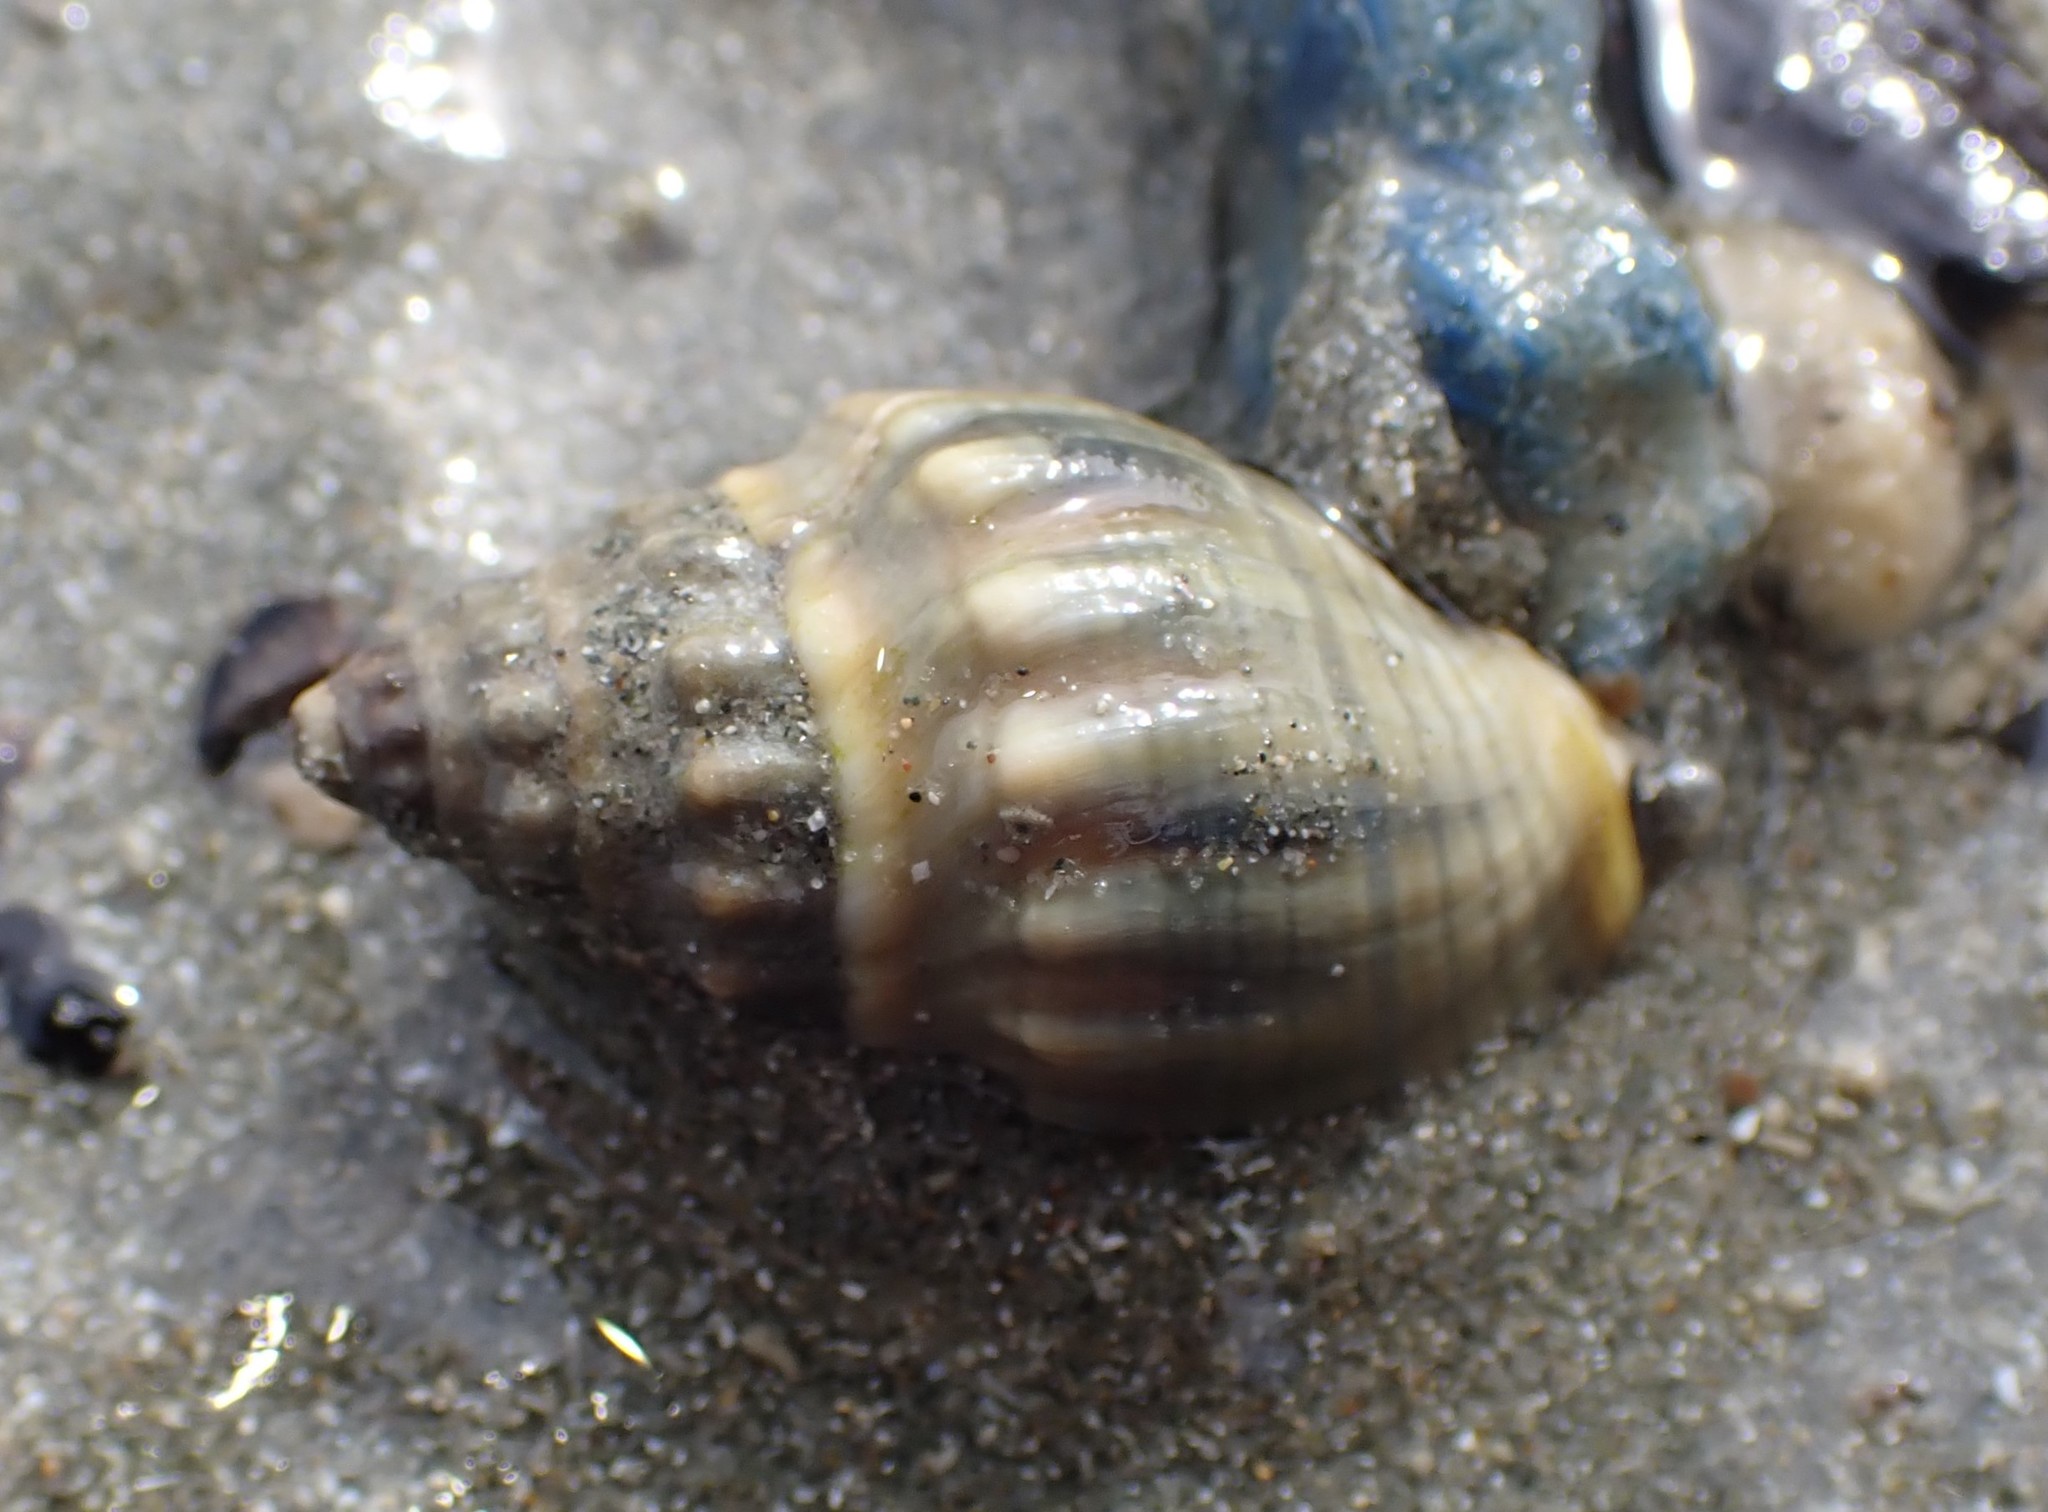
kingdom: Animalia
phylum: Mollusca
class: Gastropoda
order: Neogastropoda
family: Cominellidae
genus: Cominella
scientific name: Cominella glandiformis
